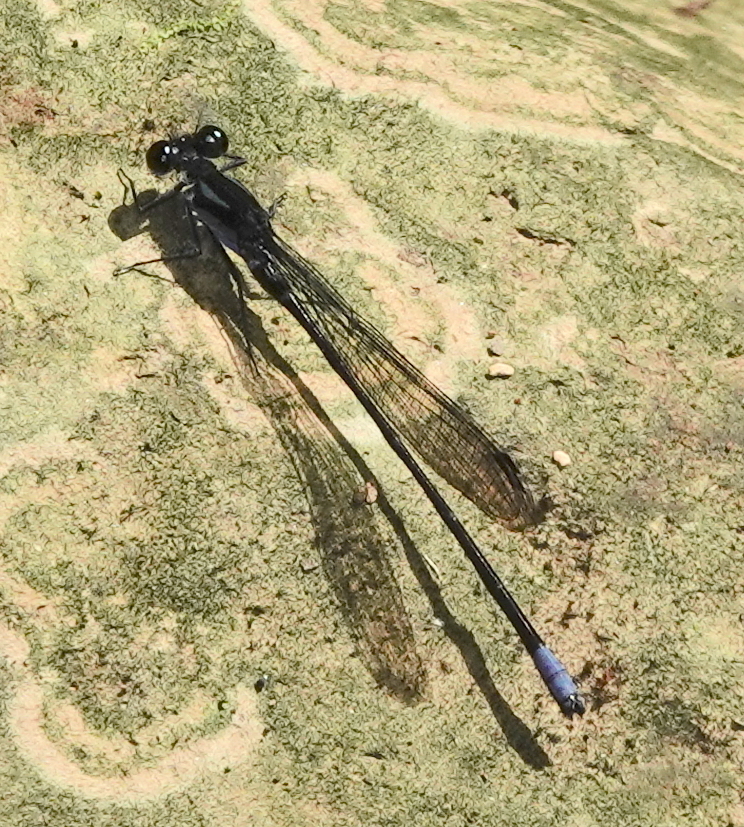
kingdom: Animalia
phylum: Arthropoda
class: Insecta
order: Odonata
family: Coenagrionidae
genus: Argia
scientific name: Argia ulmeca
